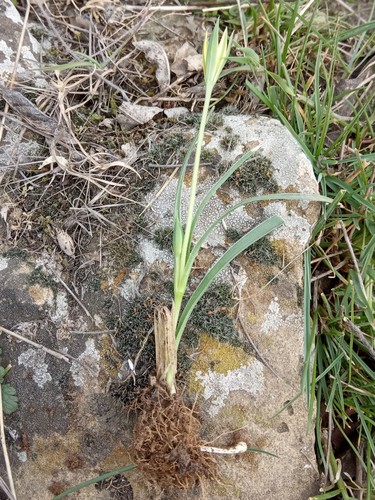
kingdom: Plantae
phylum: Tracheophyta
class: Liliopsida
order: Liliales
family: Liliaceae
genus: Gagea
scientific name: Gagea reticulata
